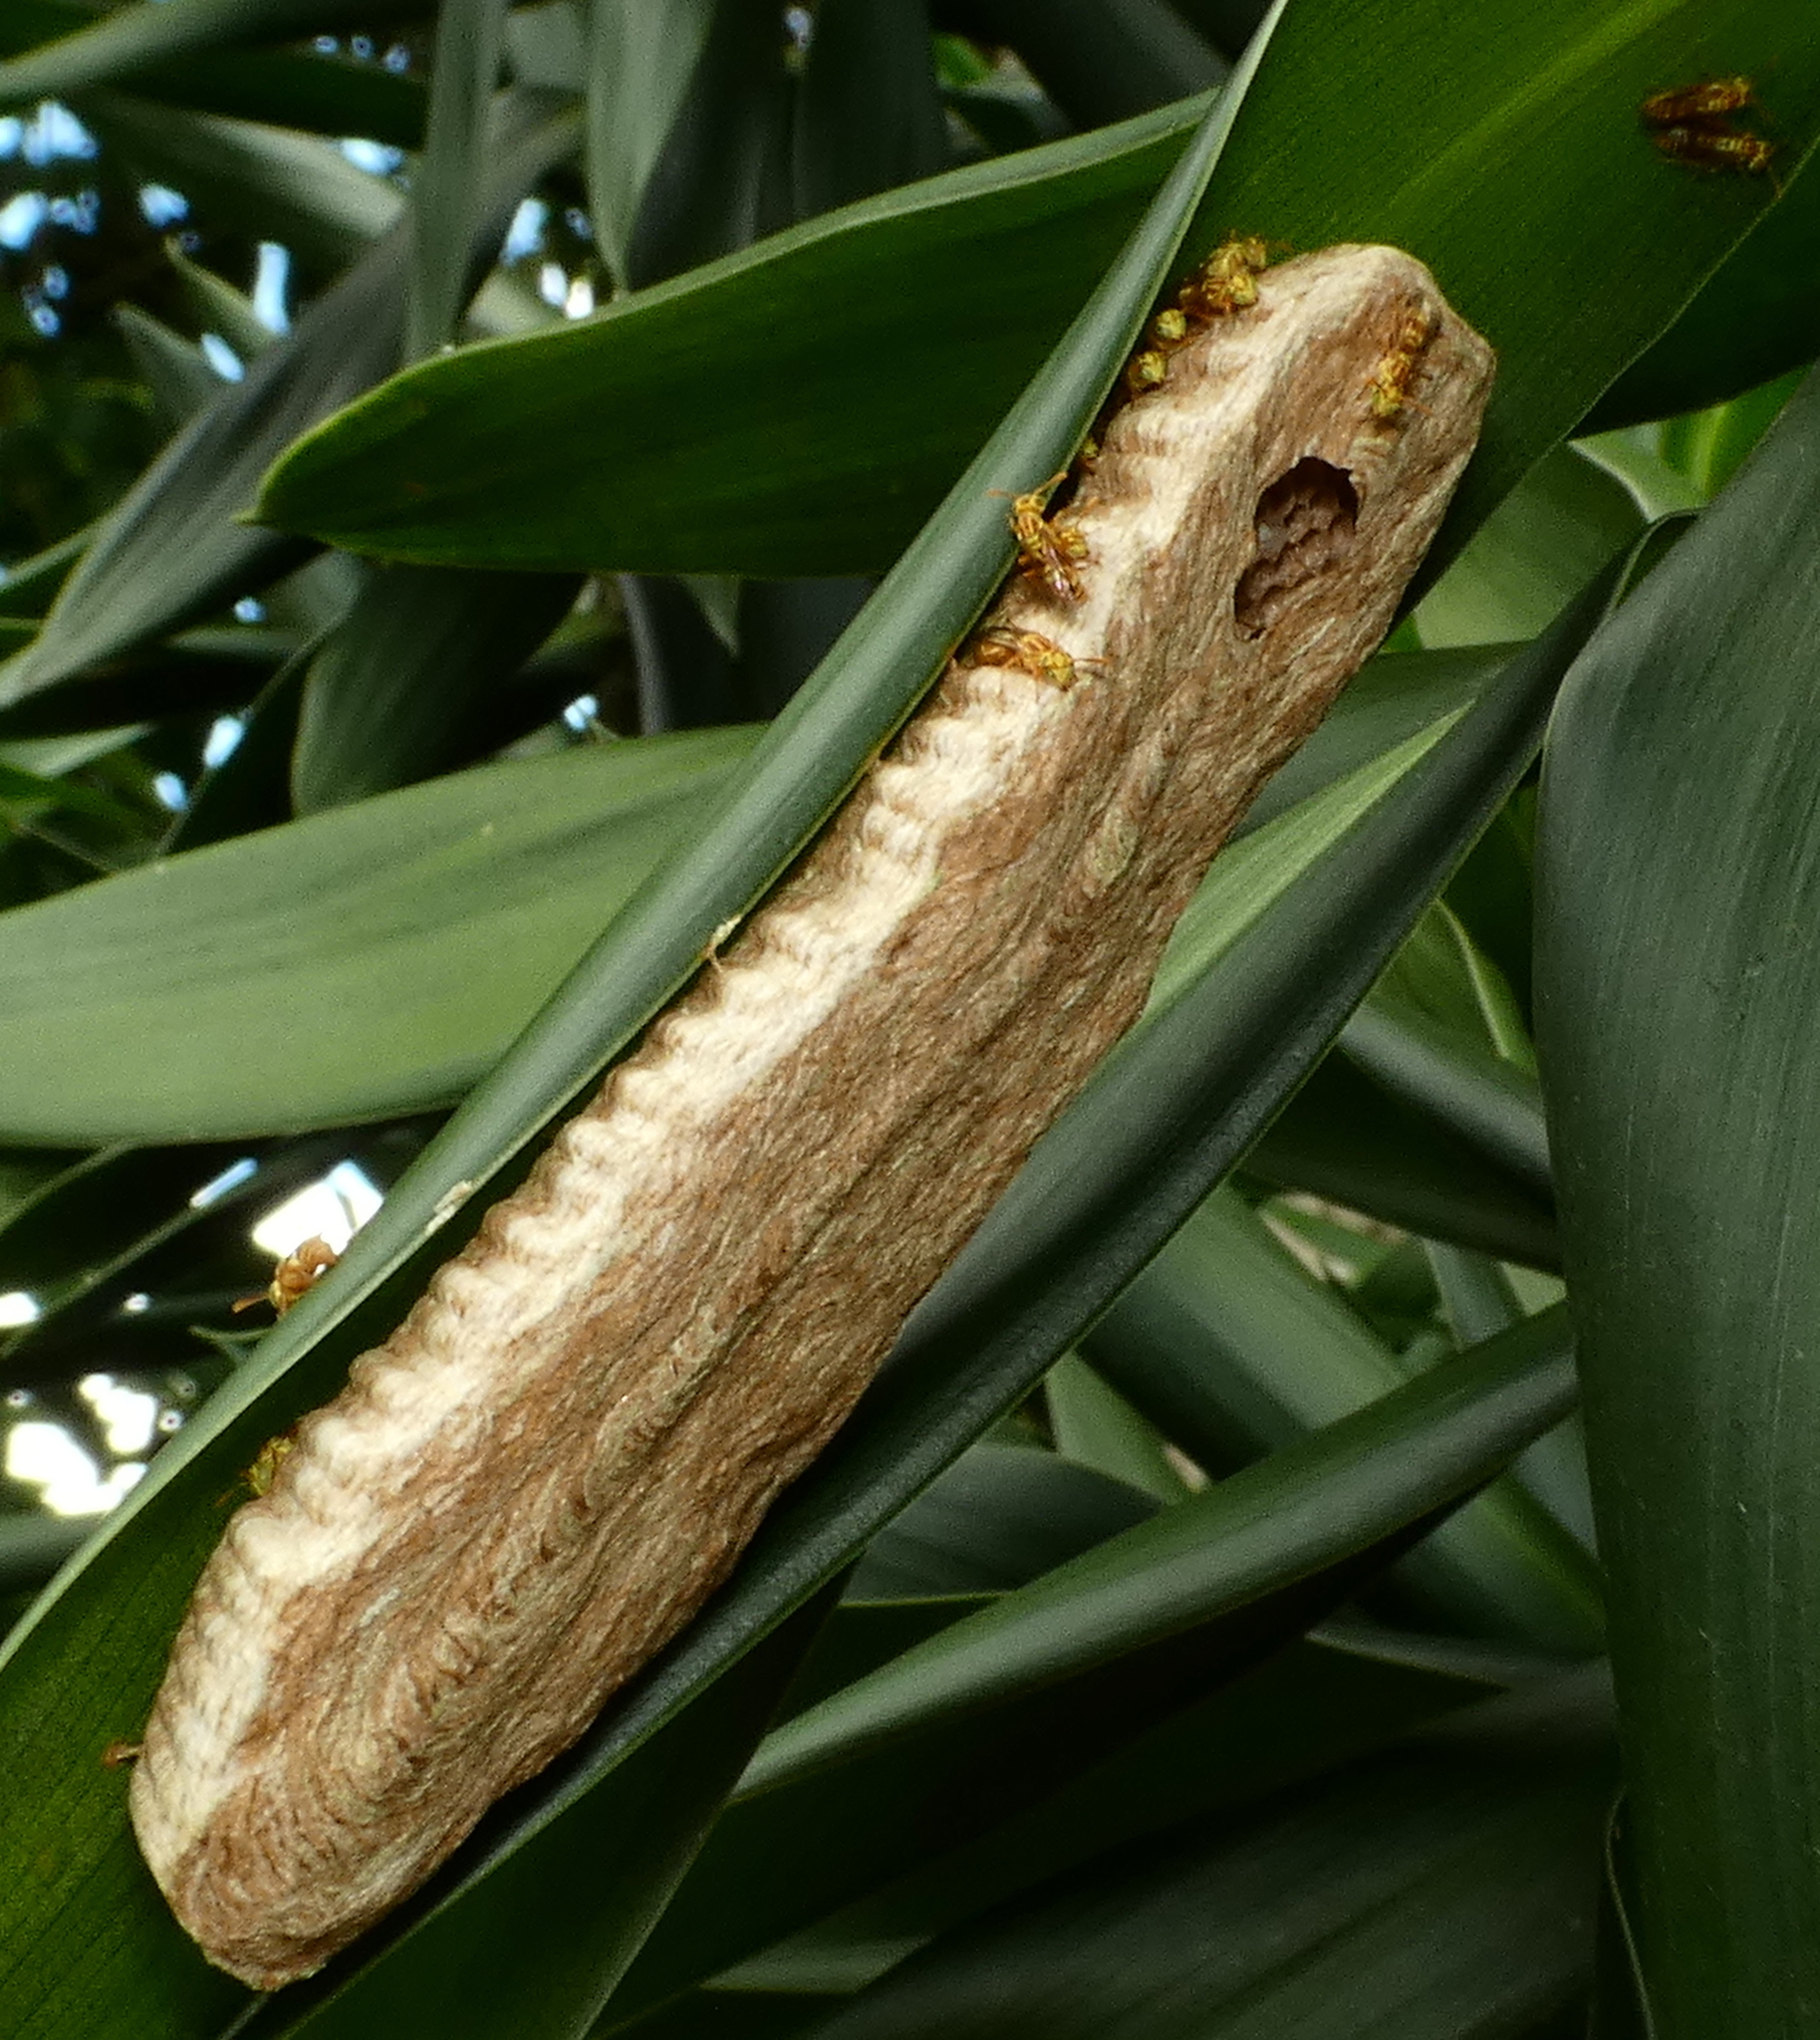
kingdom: Animalia
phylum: Arthropoda
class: Insecta
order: Hymenoptera
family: Vespidae
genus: Protopolybia
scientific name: Protopolybia potiguara
